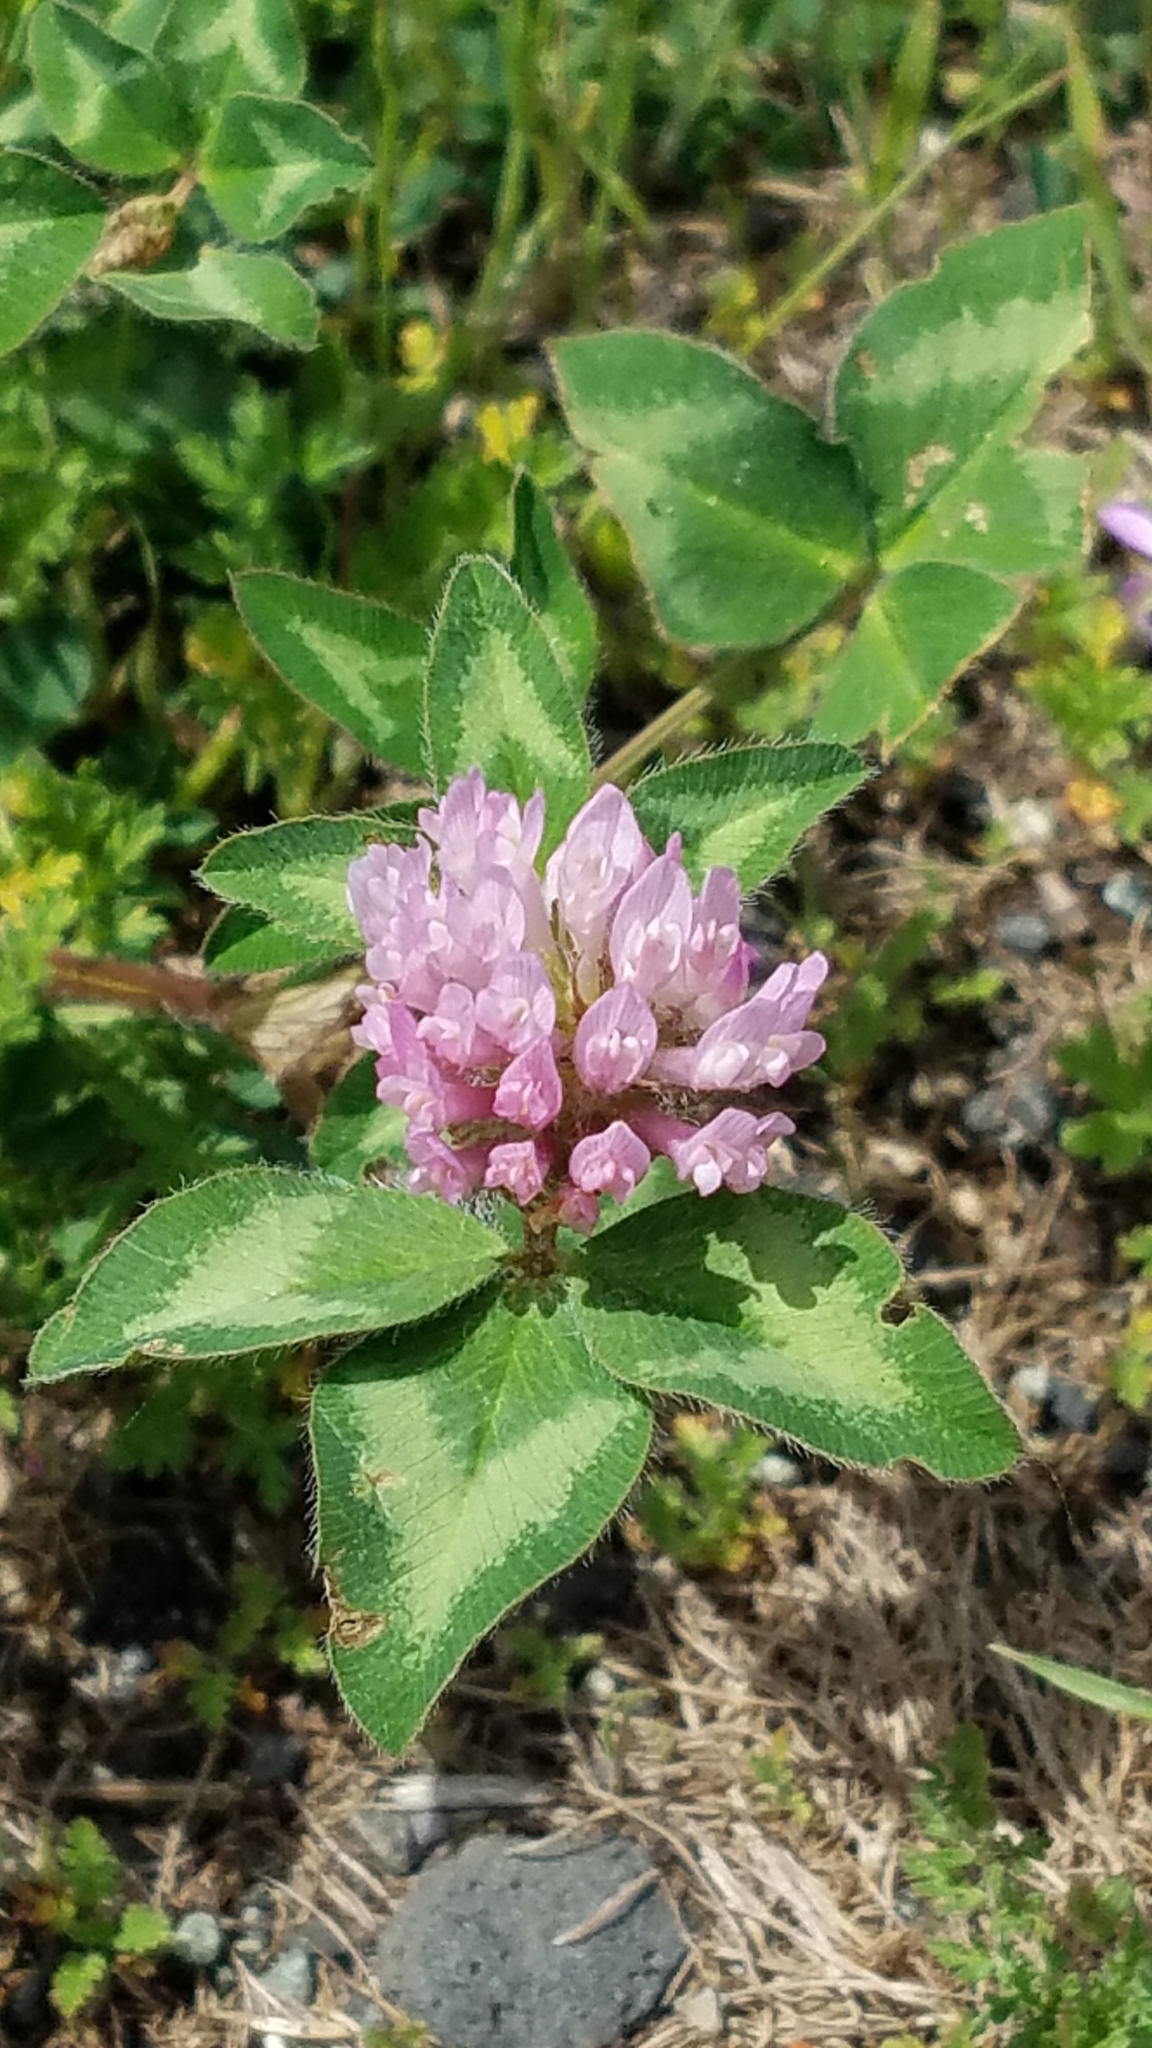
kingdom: Plantae
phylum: Tracheophyta
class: Magnoliopsida
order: Fabales
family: Fabaceae
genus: Trifolium
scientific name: Trifolium pratense
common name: Red clover
